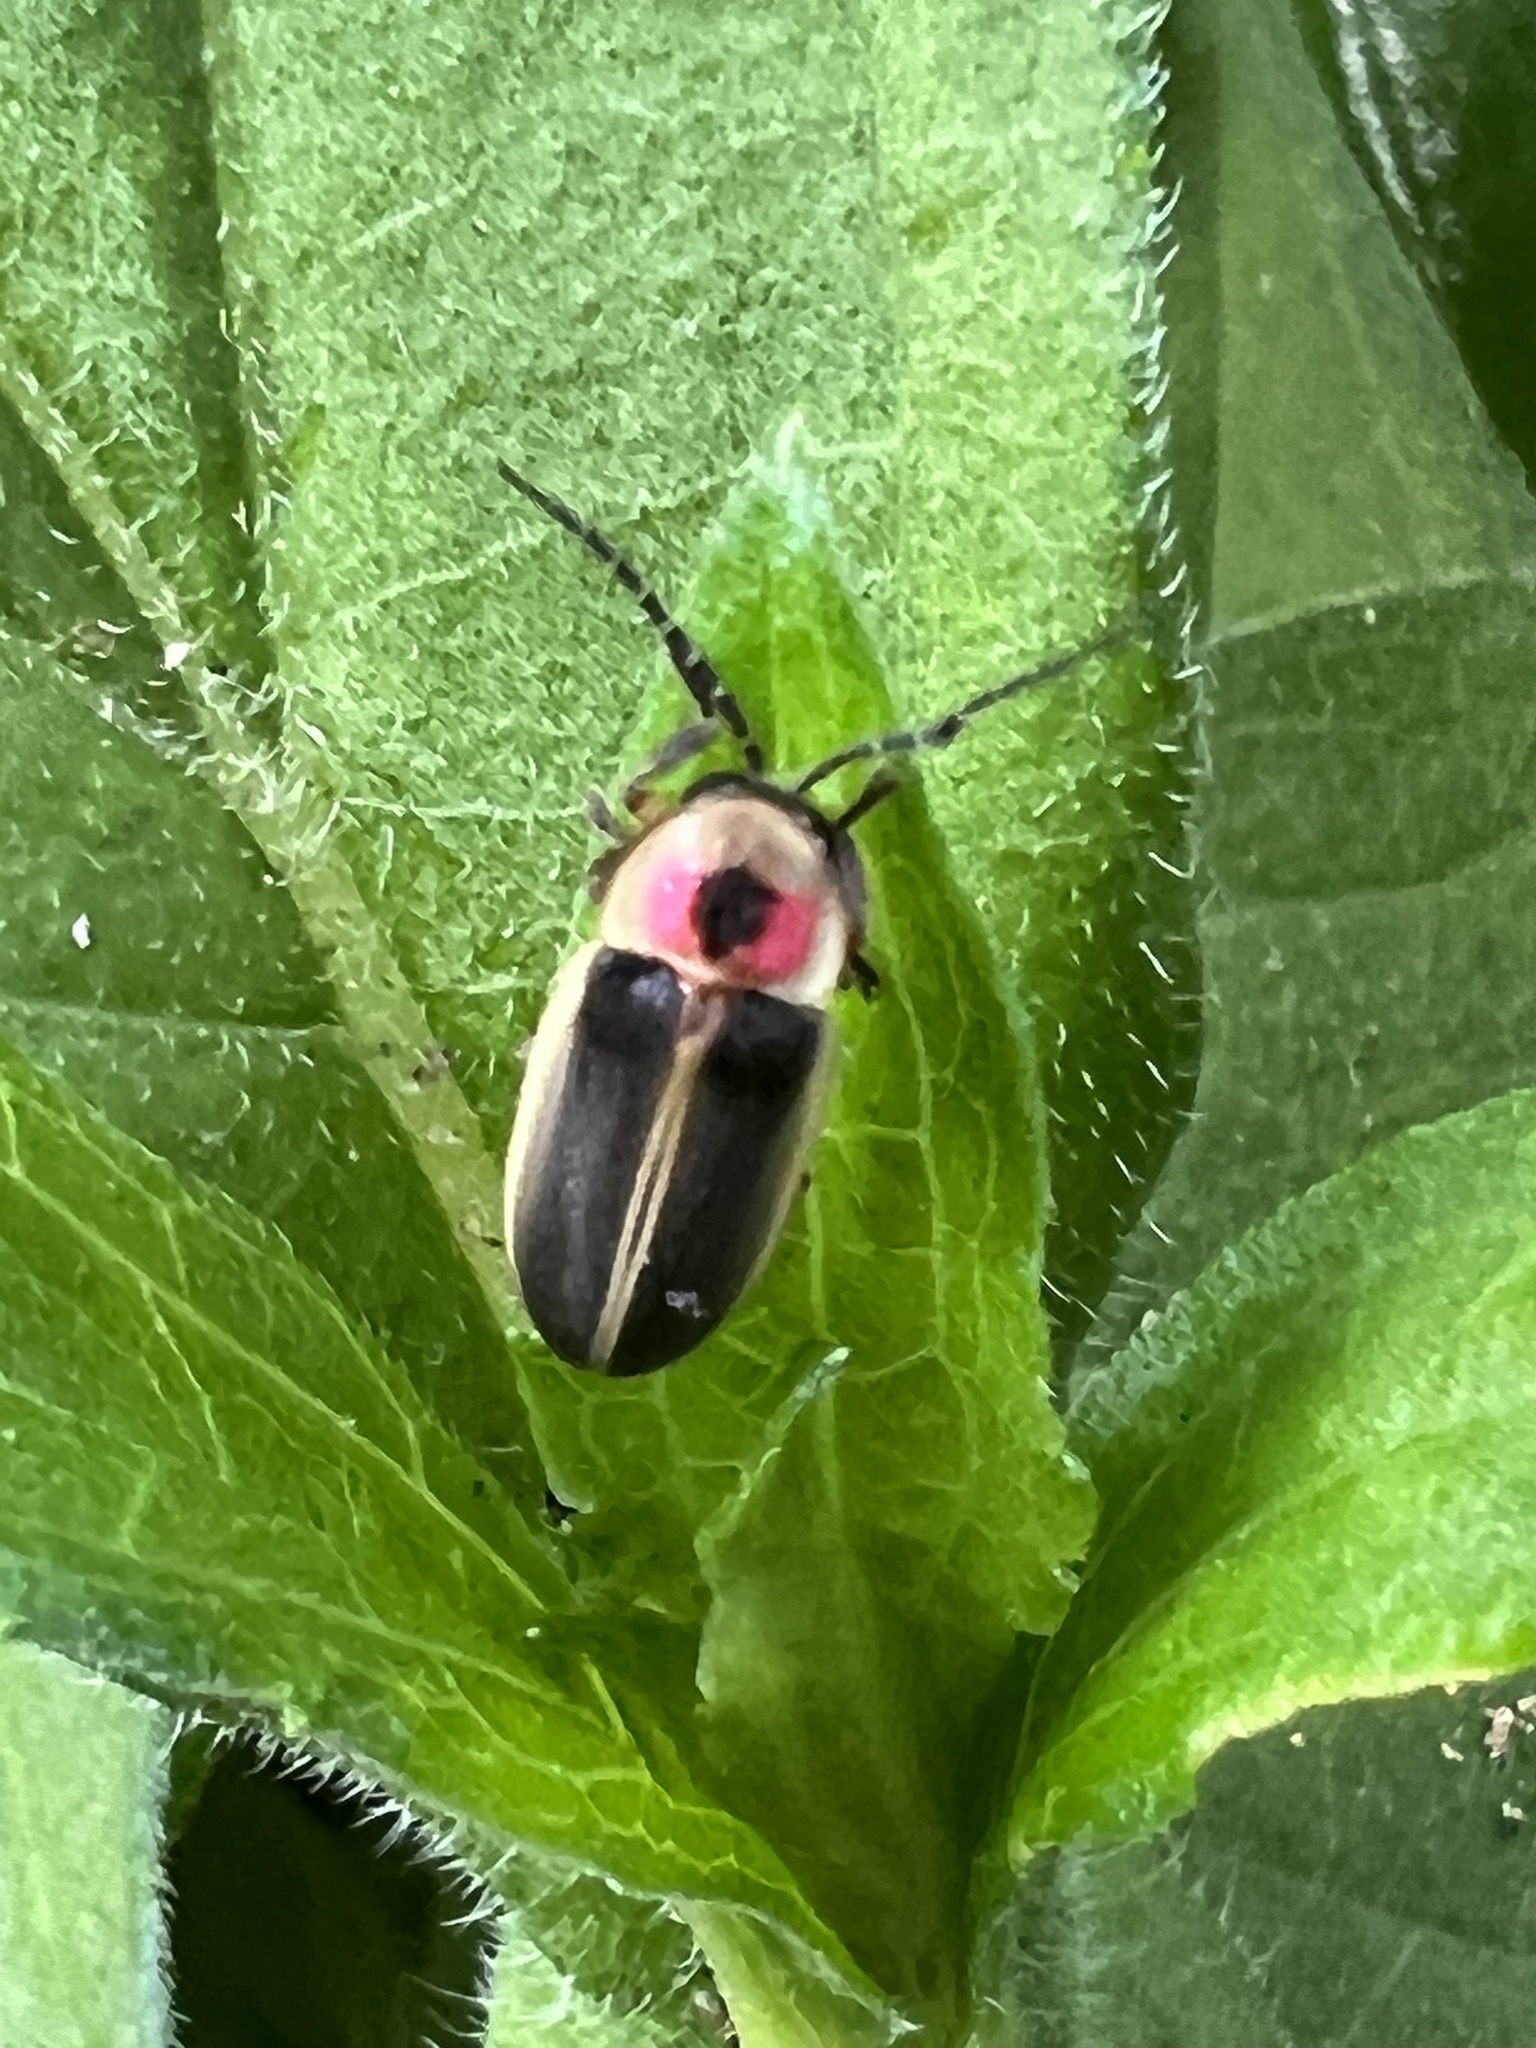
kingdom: Animalia
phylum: Arthropoda
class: Insecta
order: Coleoptera
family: Lampyridae
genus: Photinus
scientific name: Photinus pyralis
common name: Big dipper firefly
